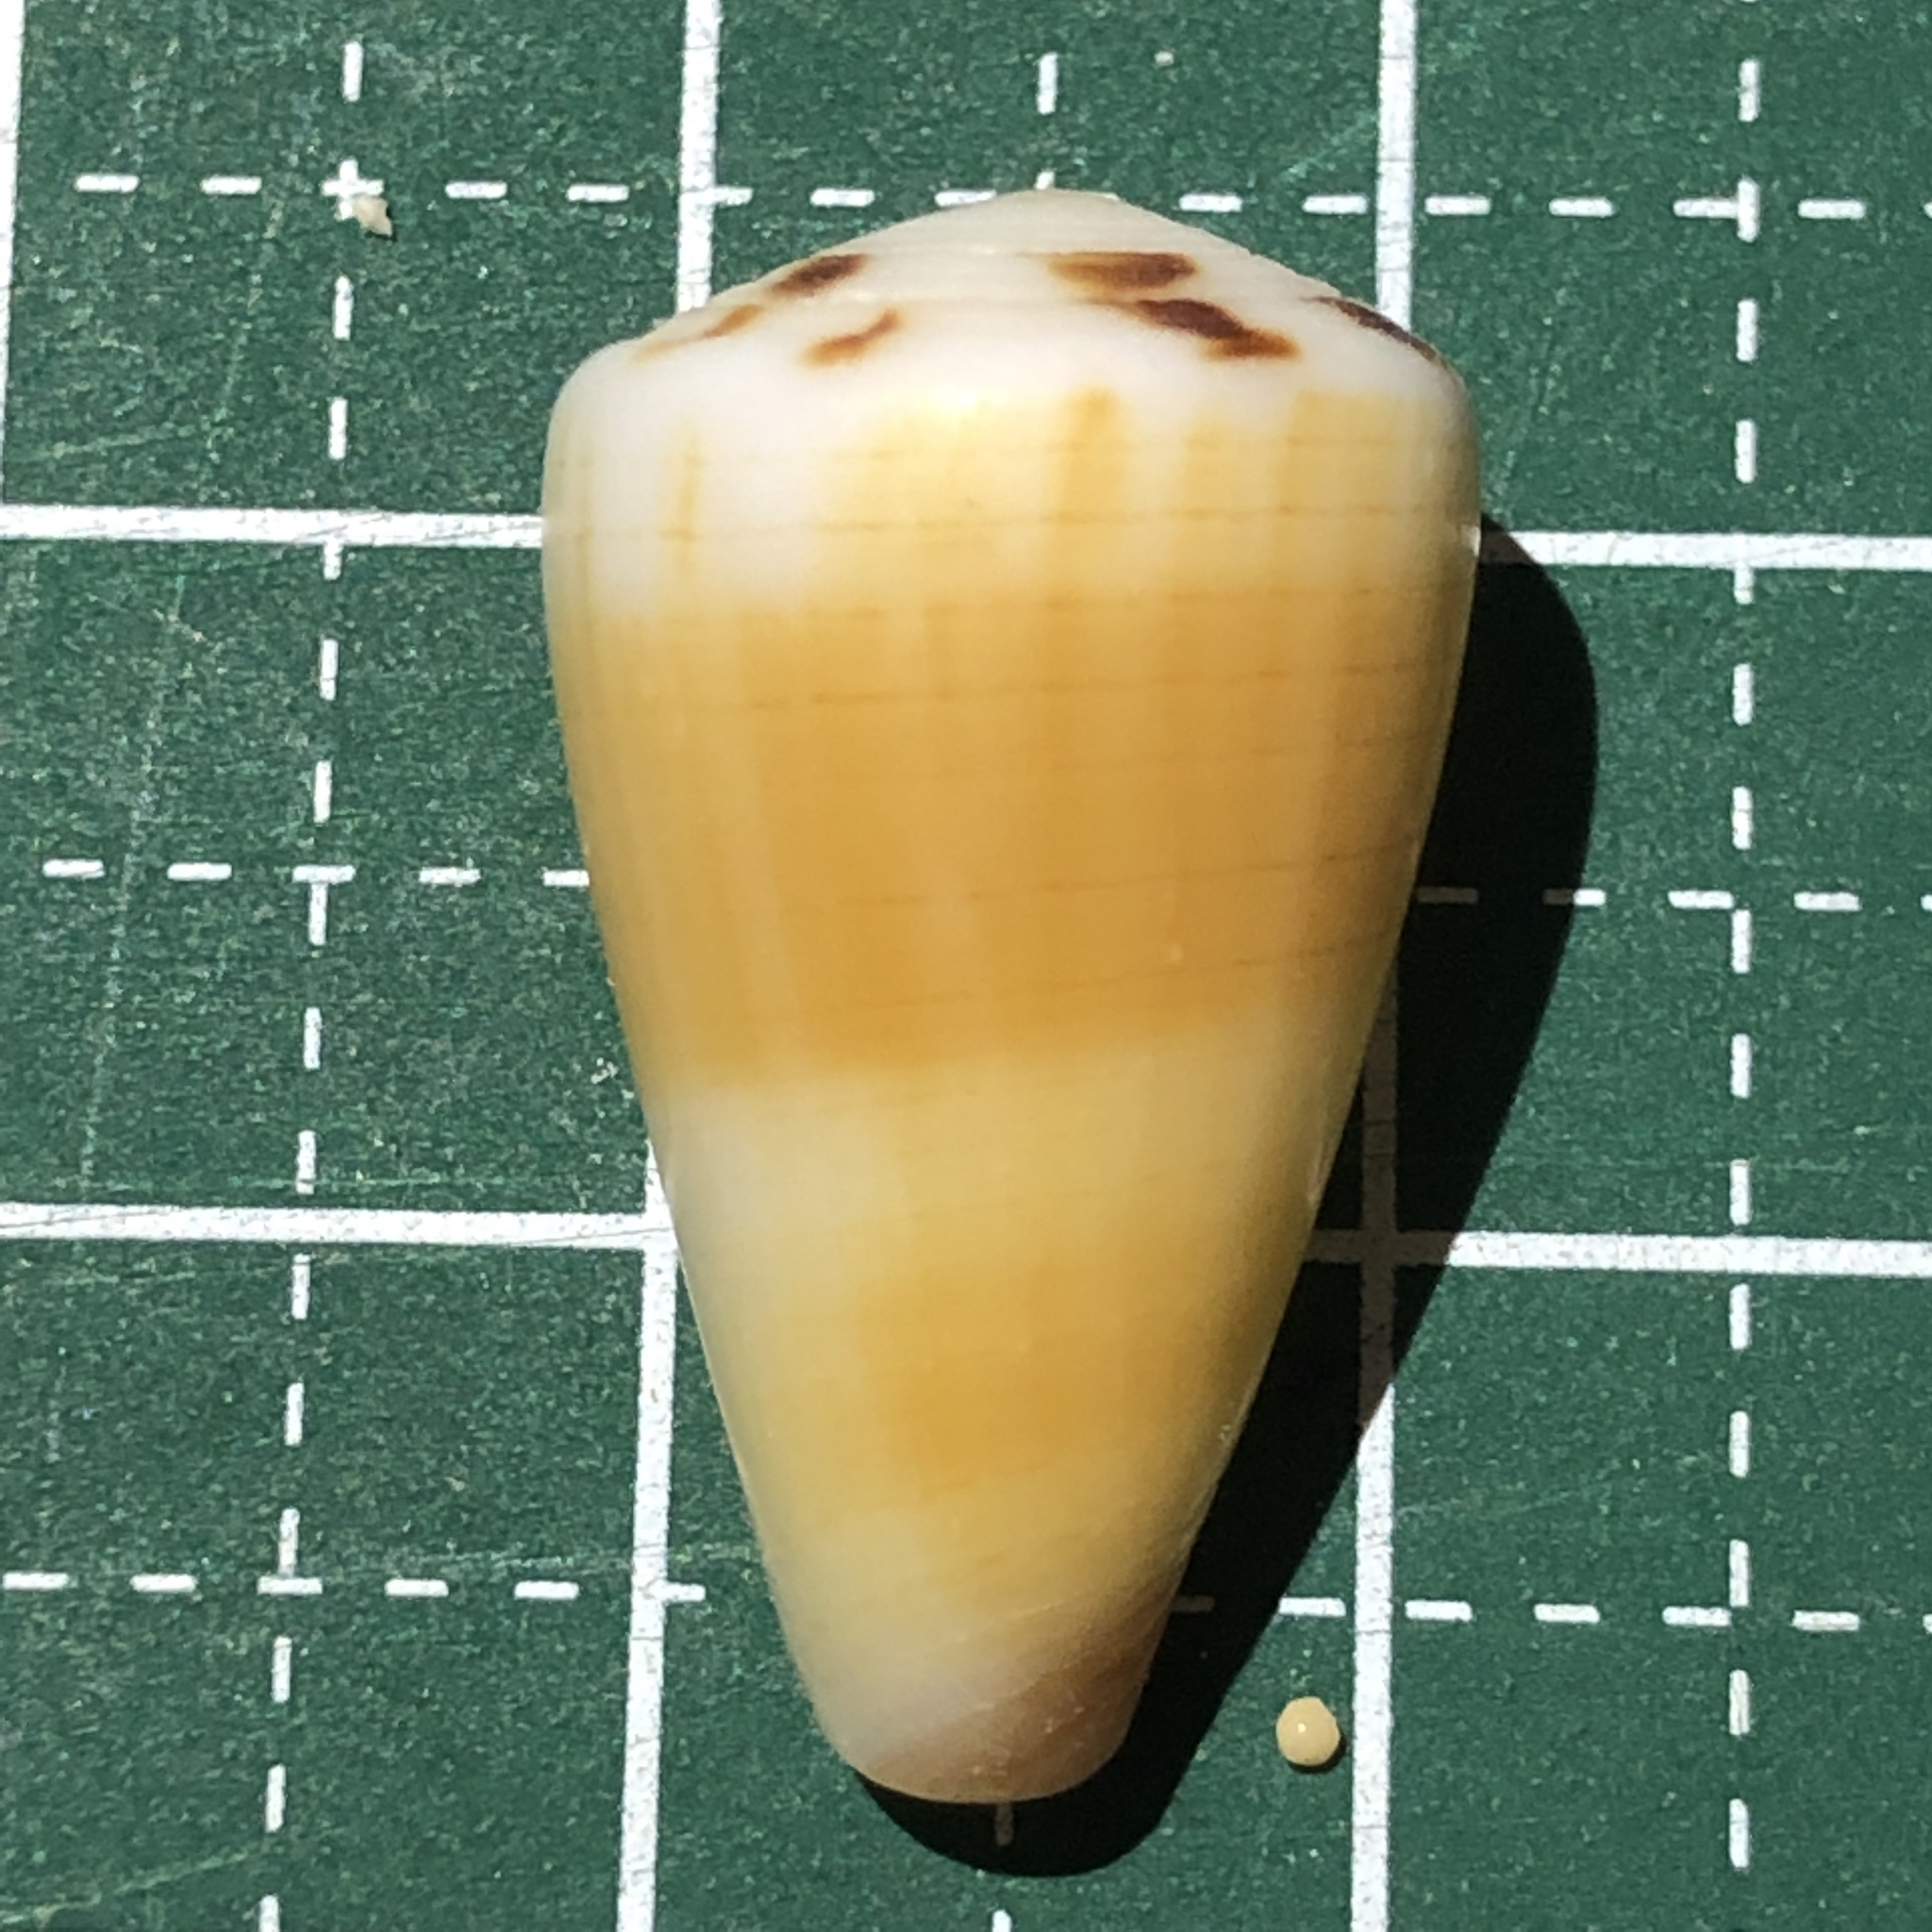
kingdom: Animalia
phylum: Mollusca
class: Gastropoda
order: Neogastropoda
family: Conidae
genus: Conus
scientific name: Conus planorbis
